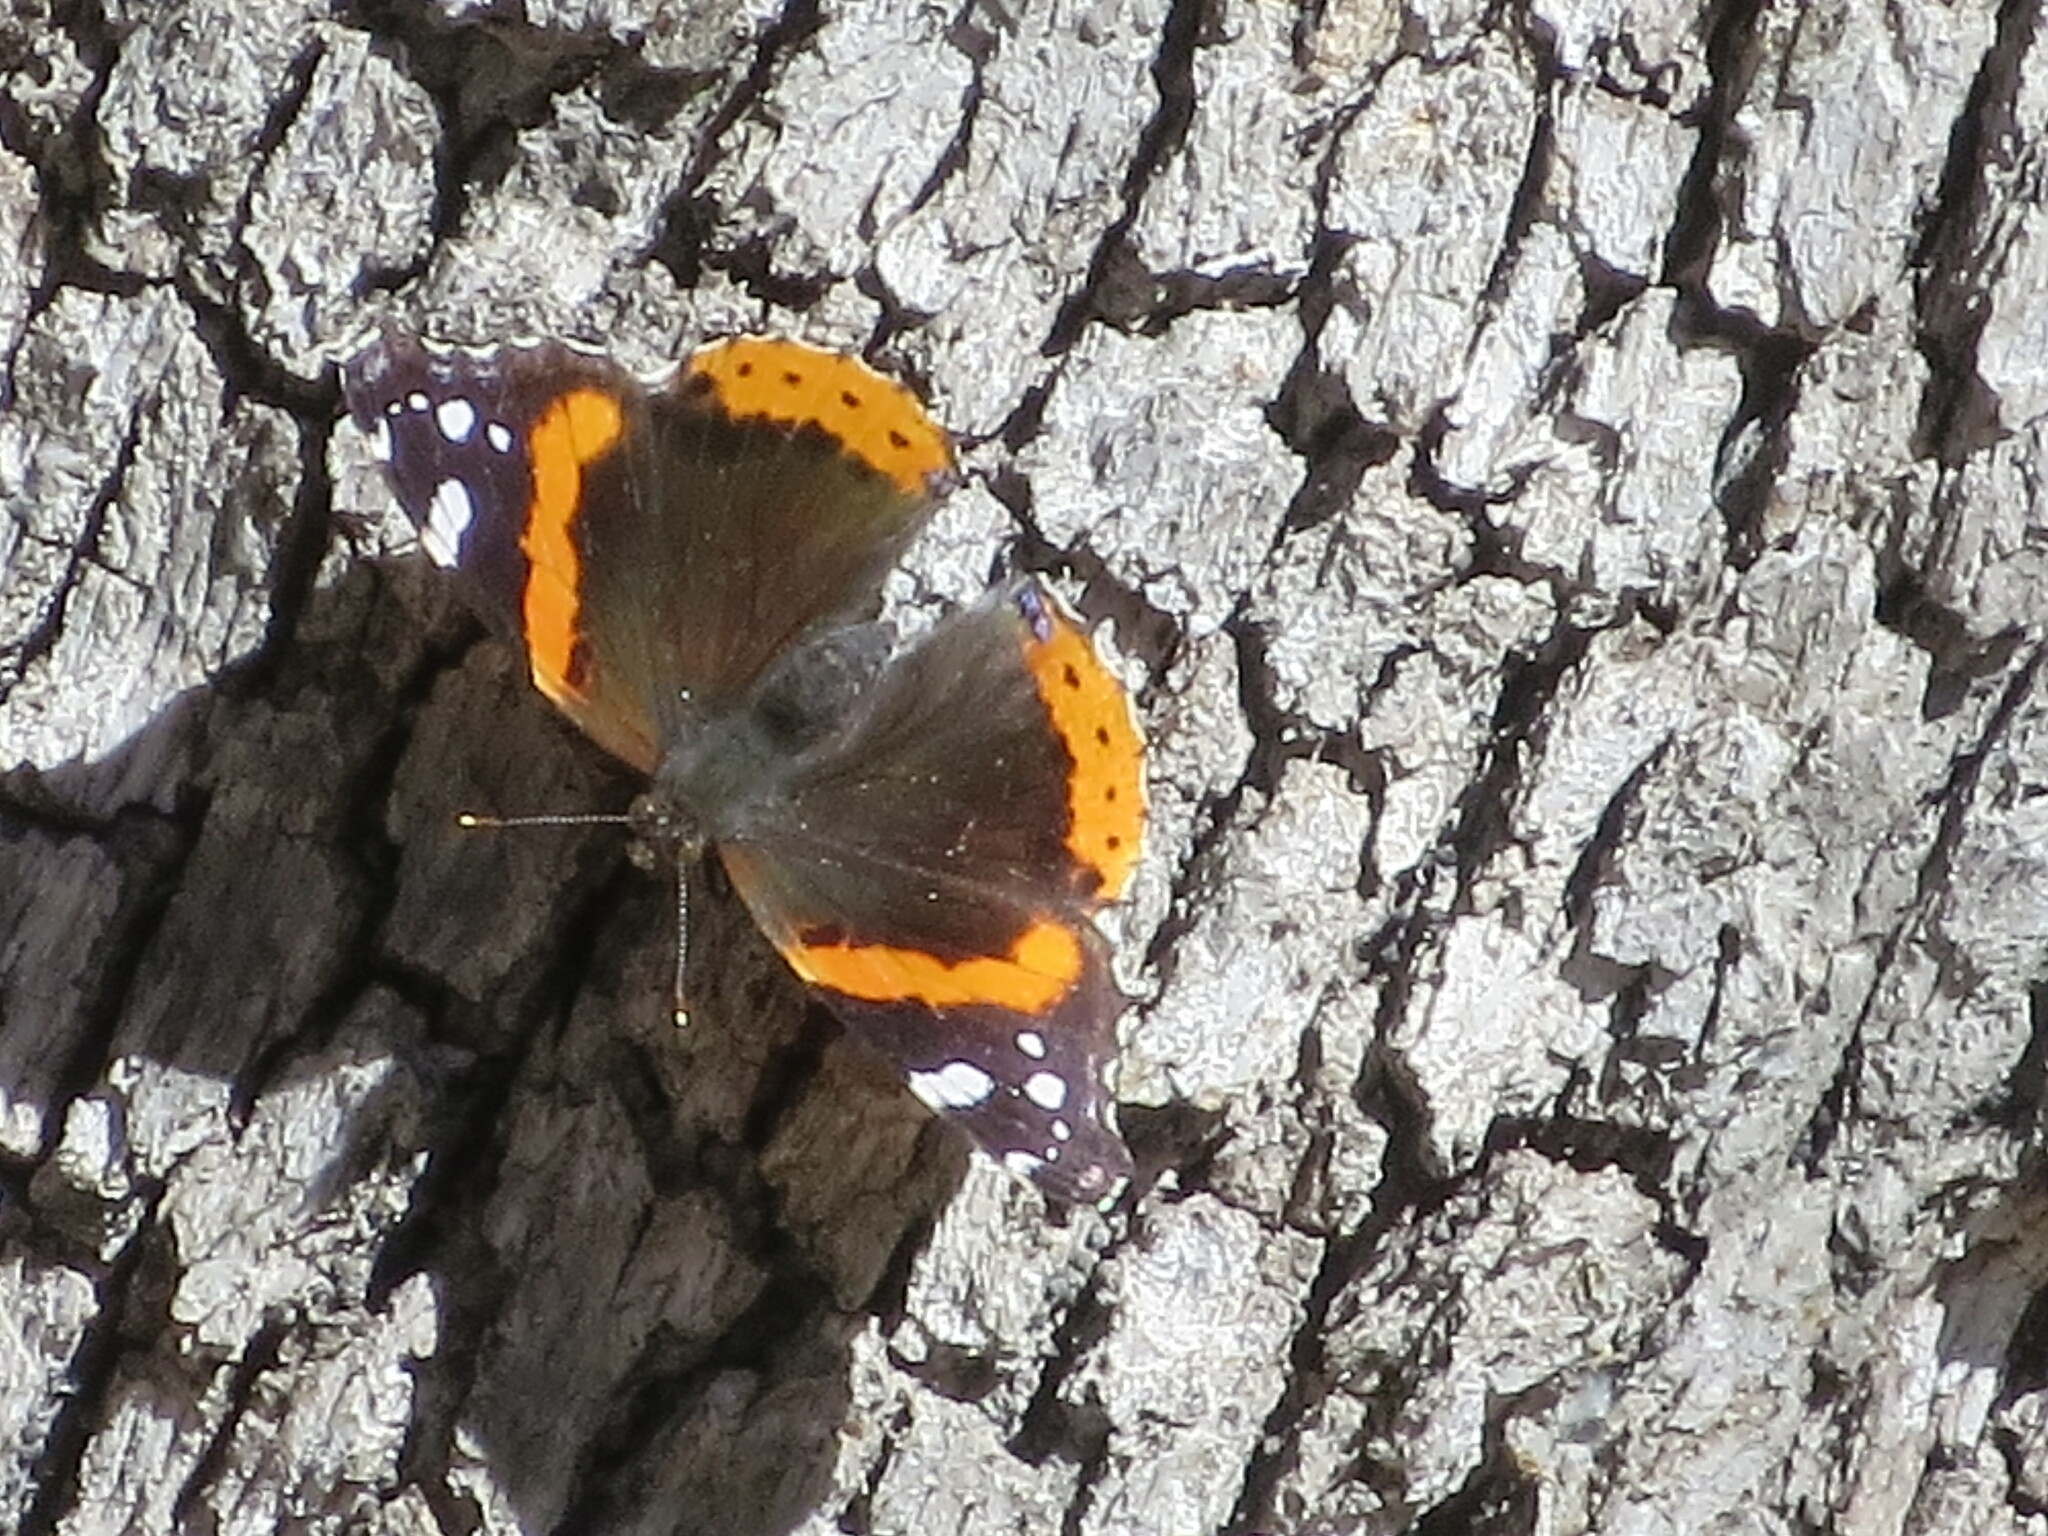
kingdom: Animalia
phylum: Arthropoda
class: Insecta
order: Lepidoptera
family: Nymphalidae
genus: Vanessa
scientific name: Vanessa atalanta
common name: Red admiral
